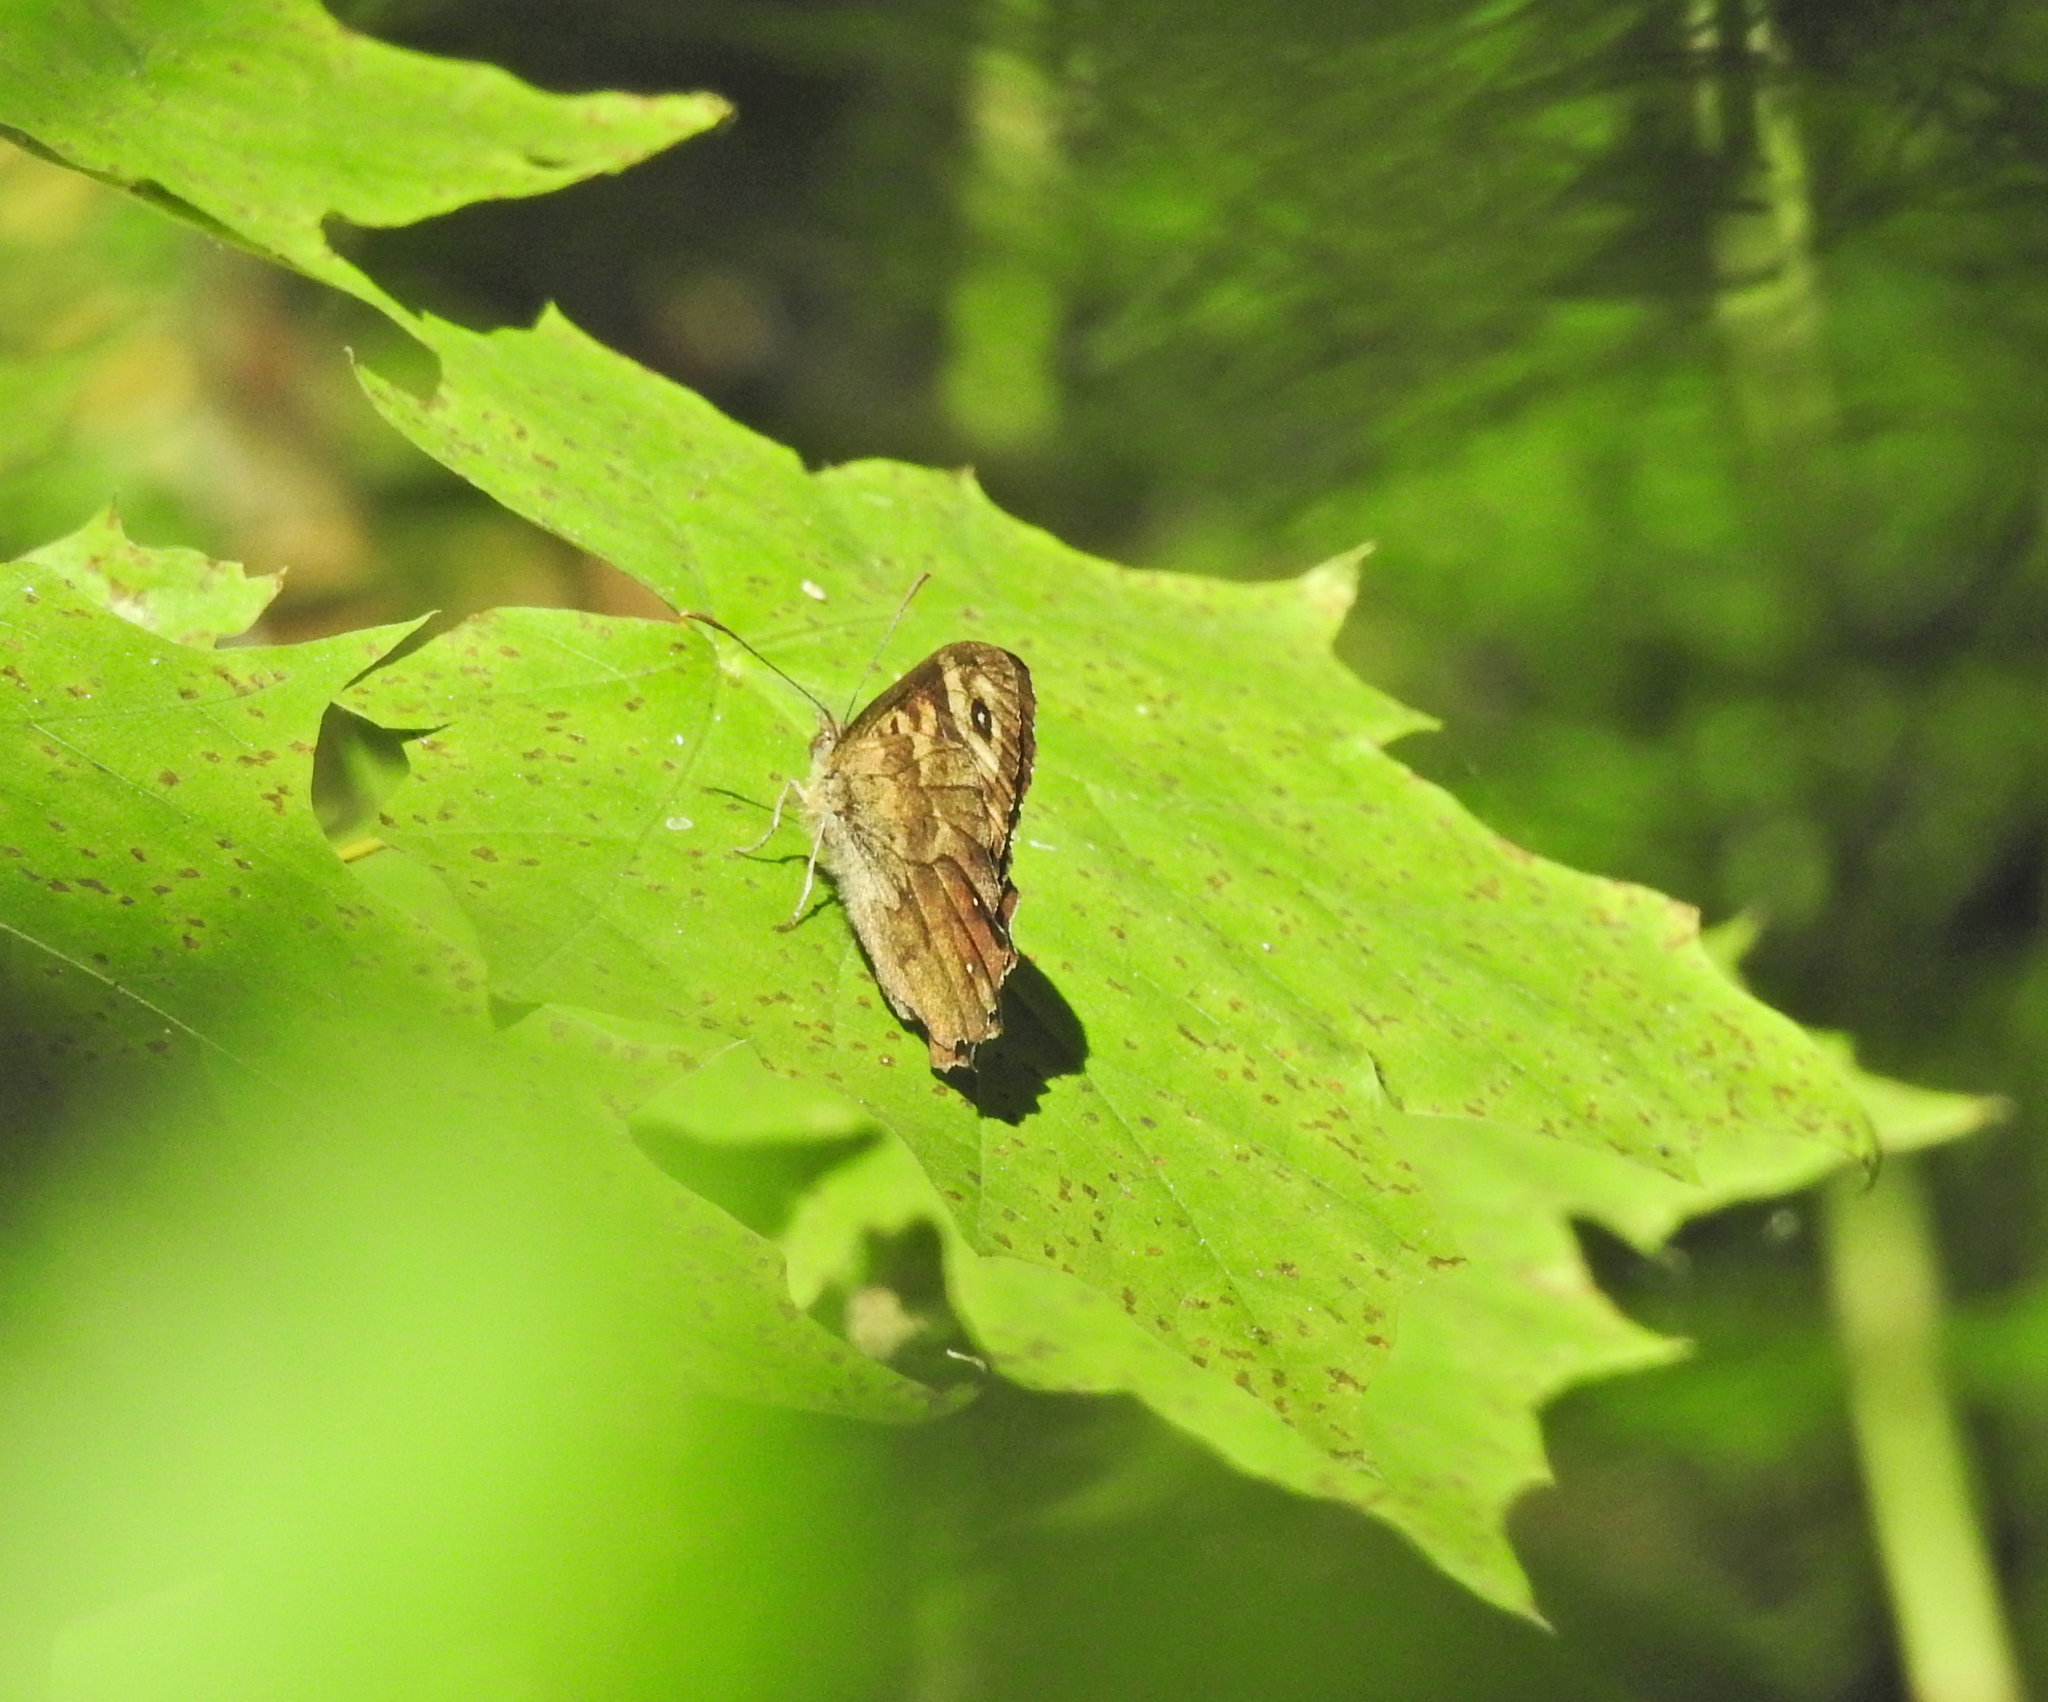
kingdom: Animalia
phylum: Arthropoda
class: Insecta
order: Lepidoptera
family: Nymphalidae
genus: Pararge
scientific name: Pararge aegeria
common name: Speckled wood
